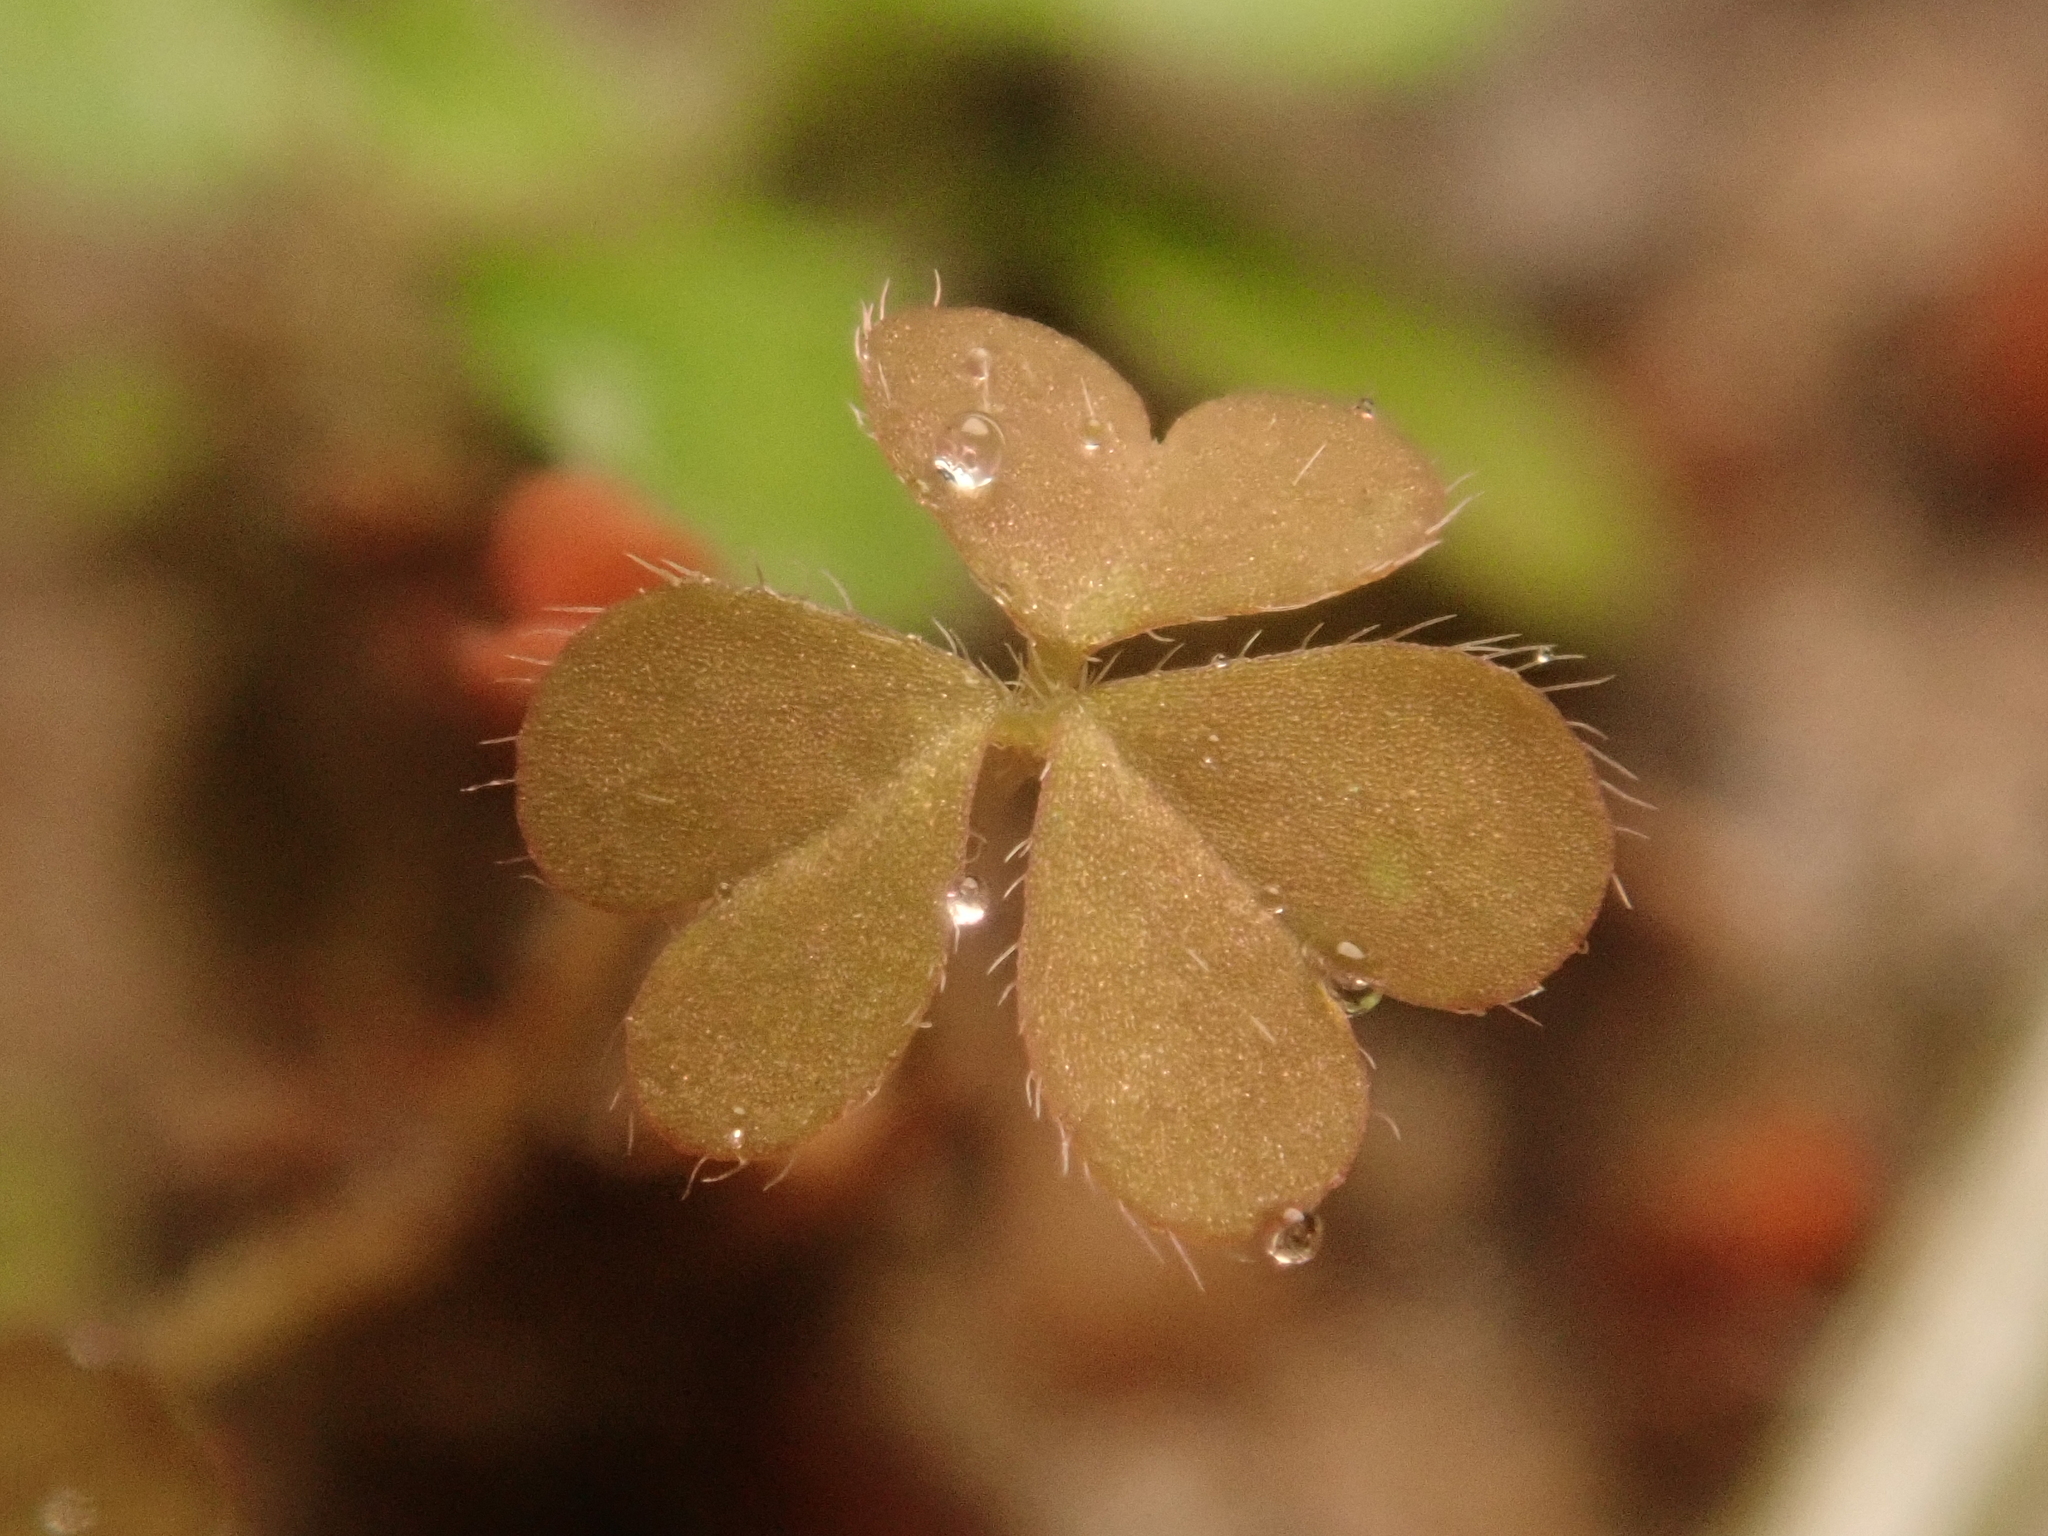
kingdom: Plantae
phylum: Tracheophyta
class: Magnoliopsida
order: Oxalidales
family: Oxalidaceae
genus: Oxalis
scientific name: Oxalis corniculata
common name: Procumbent yellow-sorrel
